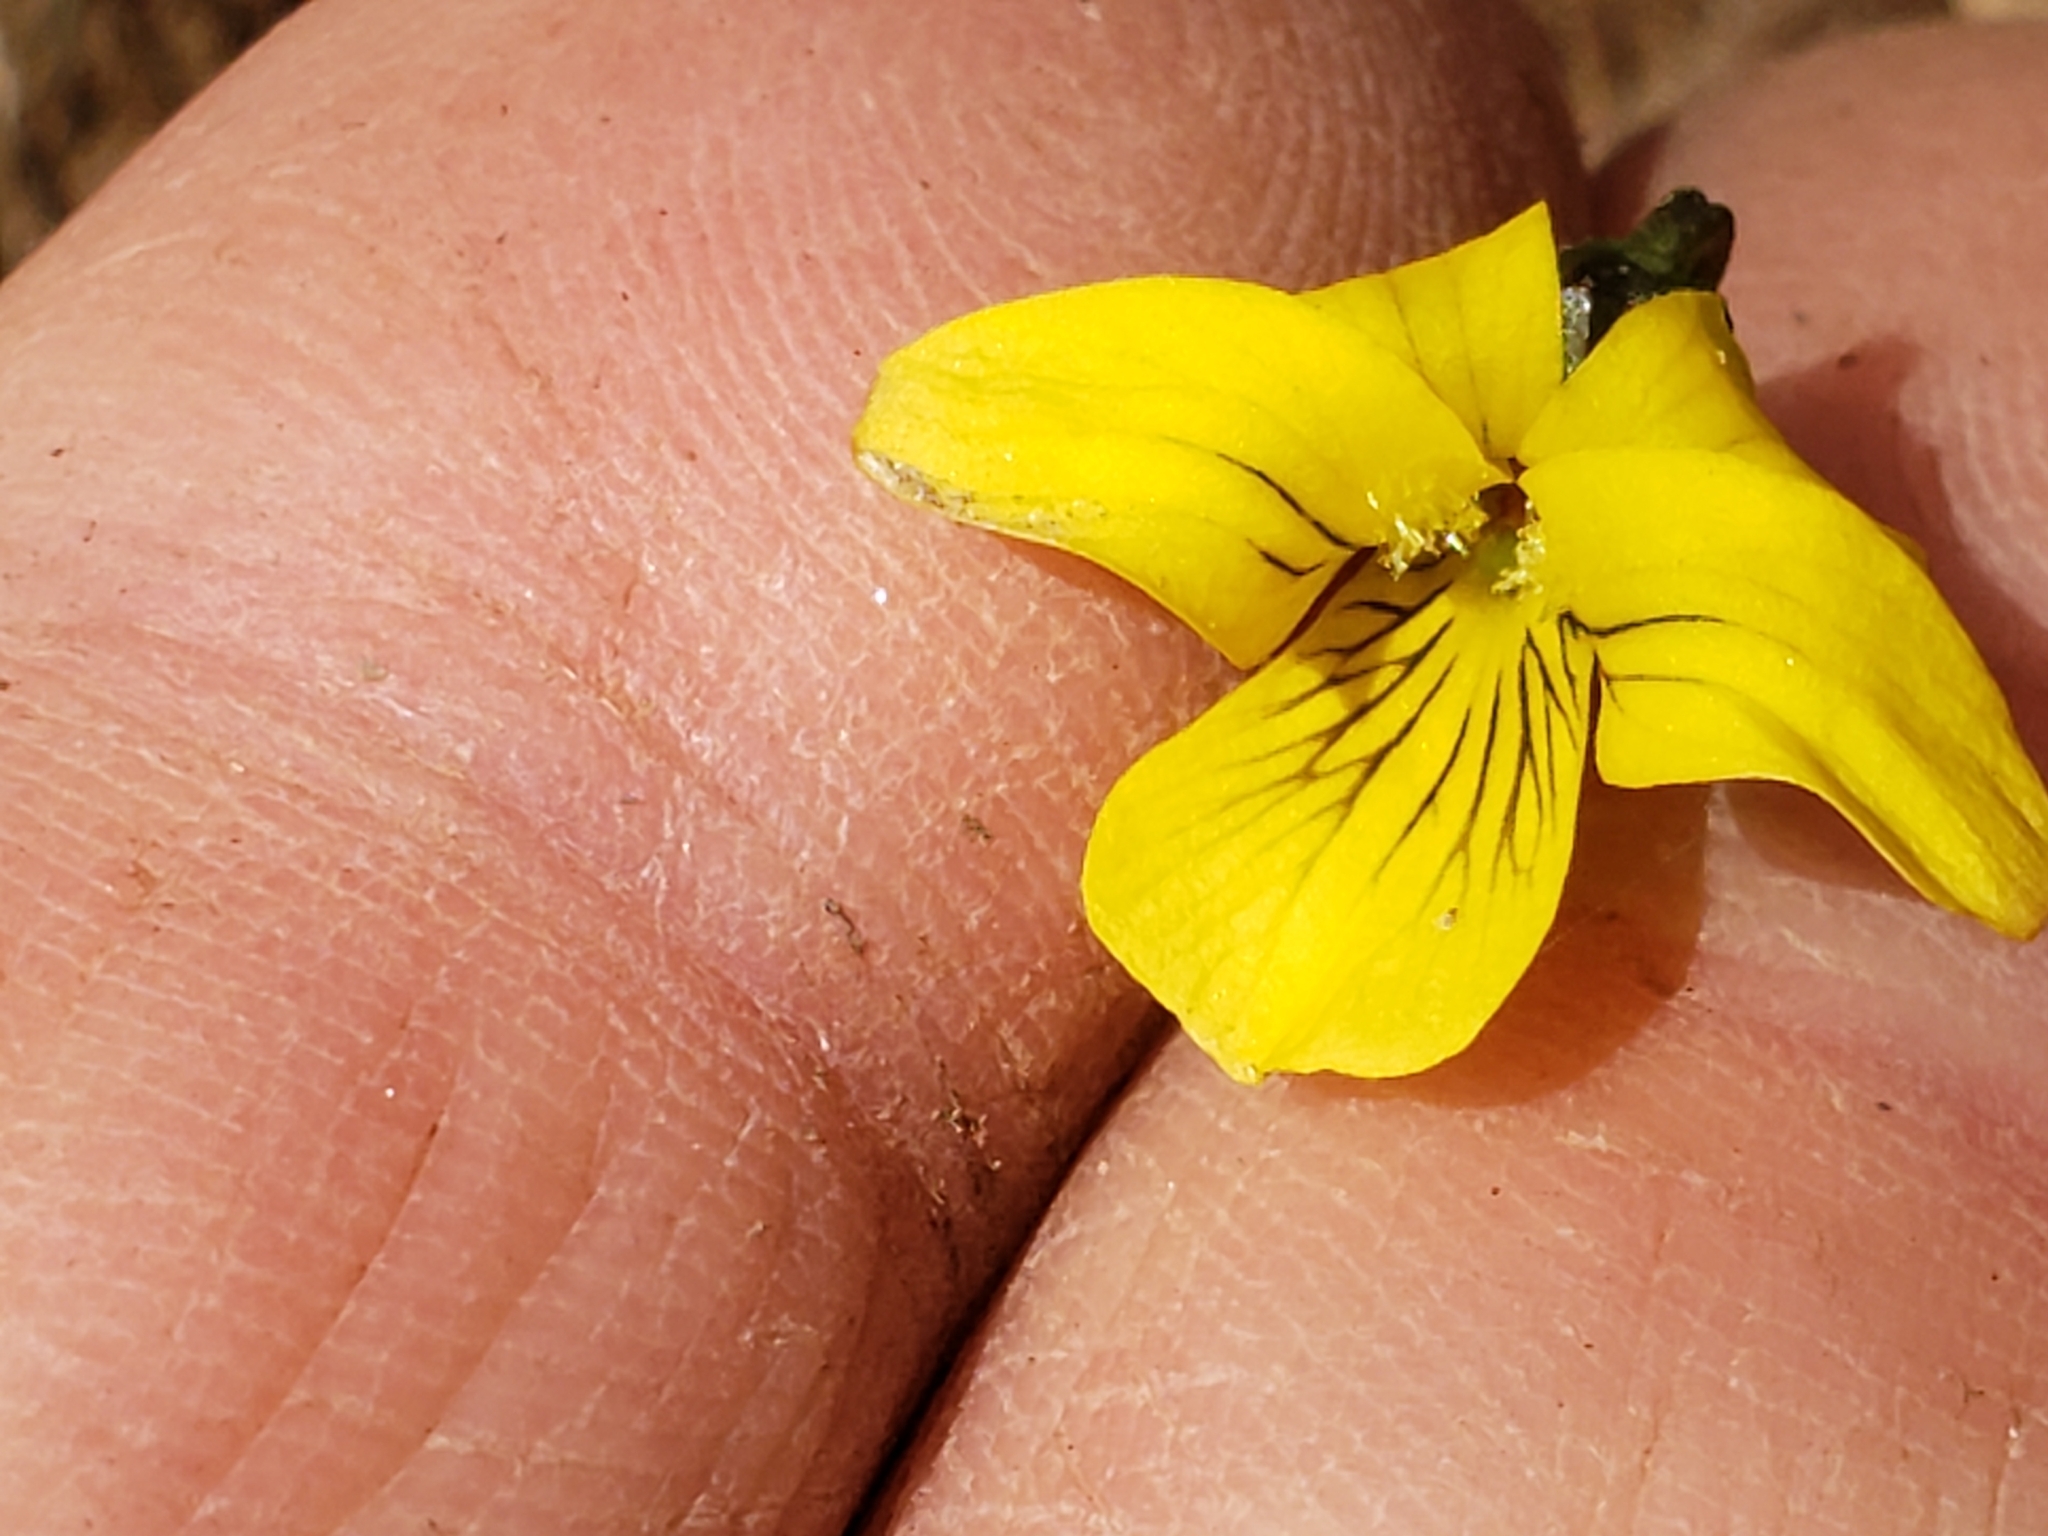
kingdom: Plantae
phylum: Tracheophyta
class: Magnoliopsida
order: Malpighiales
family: Violaceae
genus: Viola
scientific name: Viola eriocarpa
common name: Smooth yellow violet
